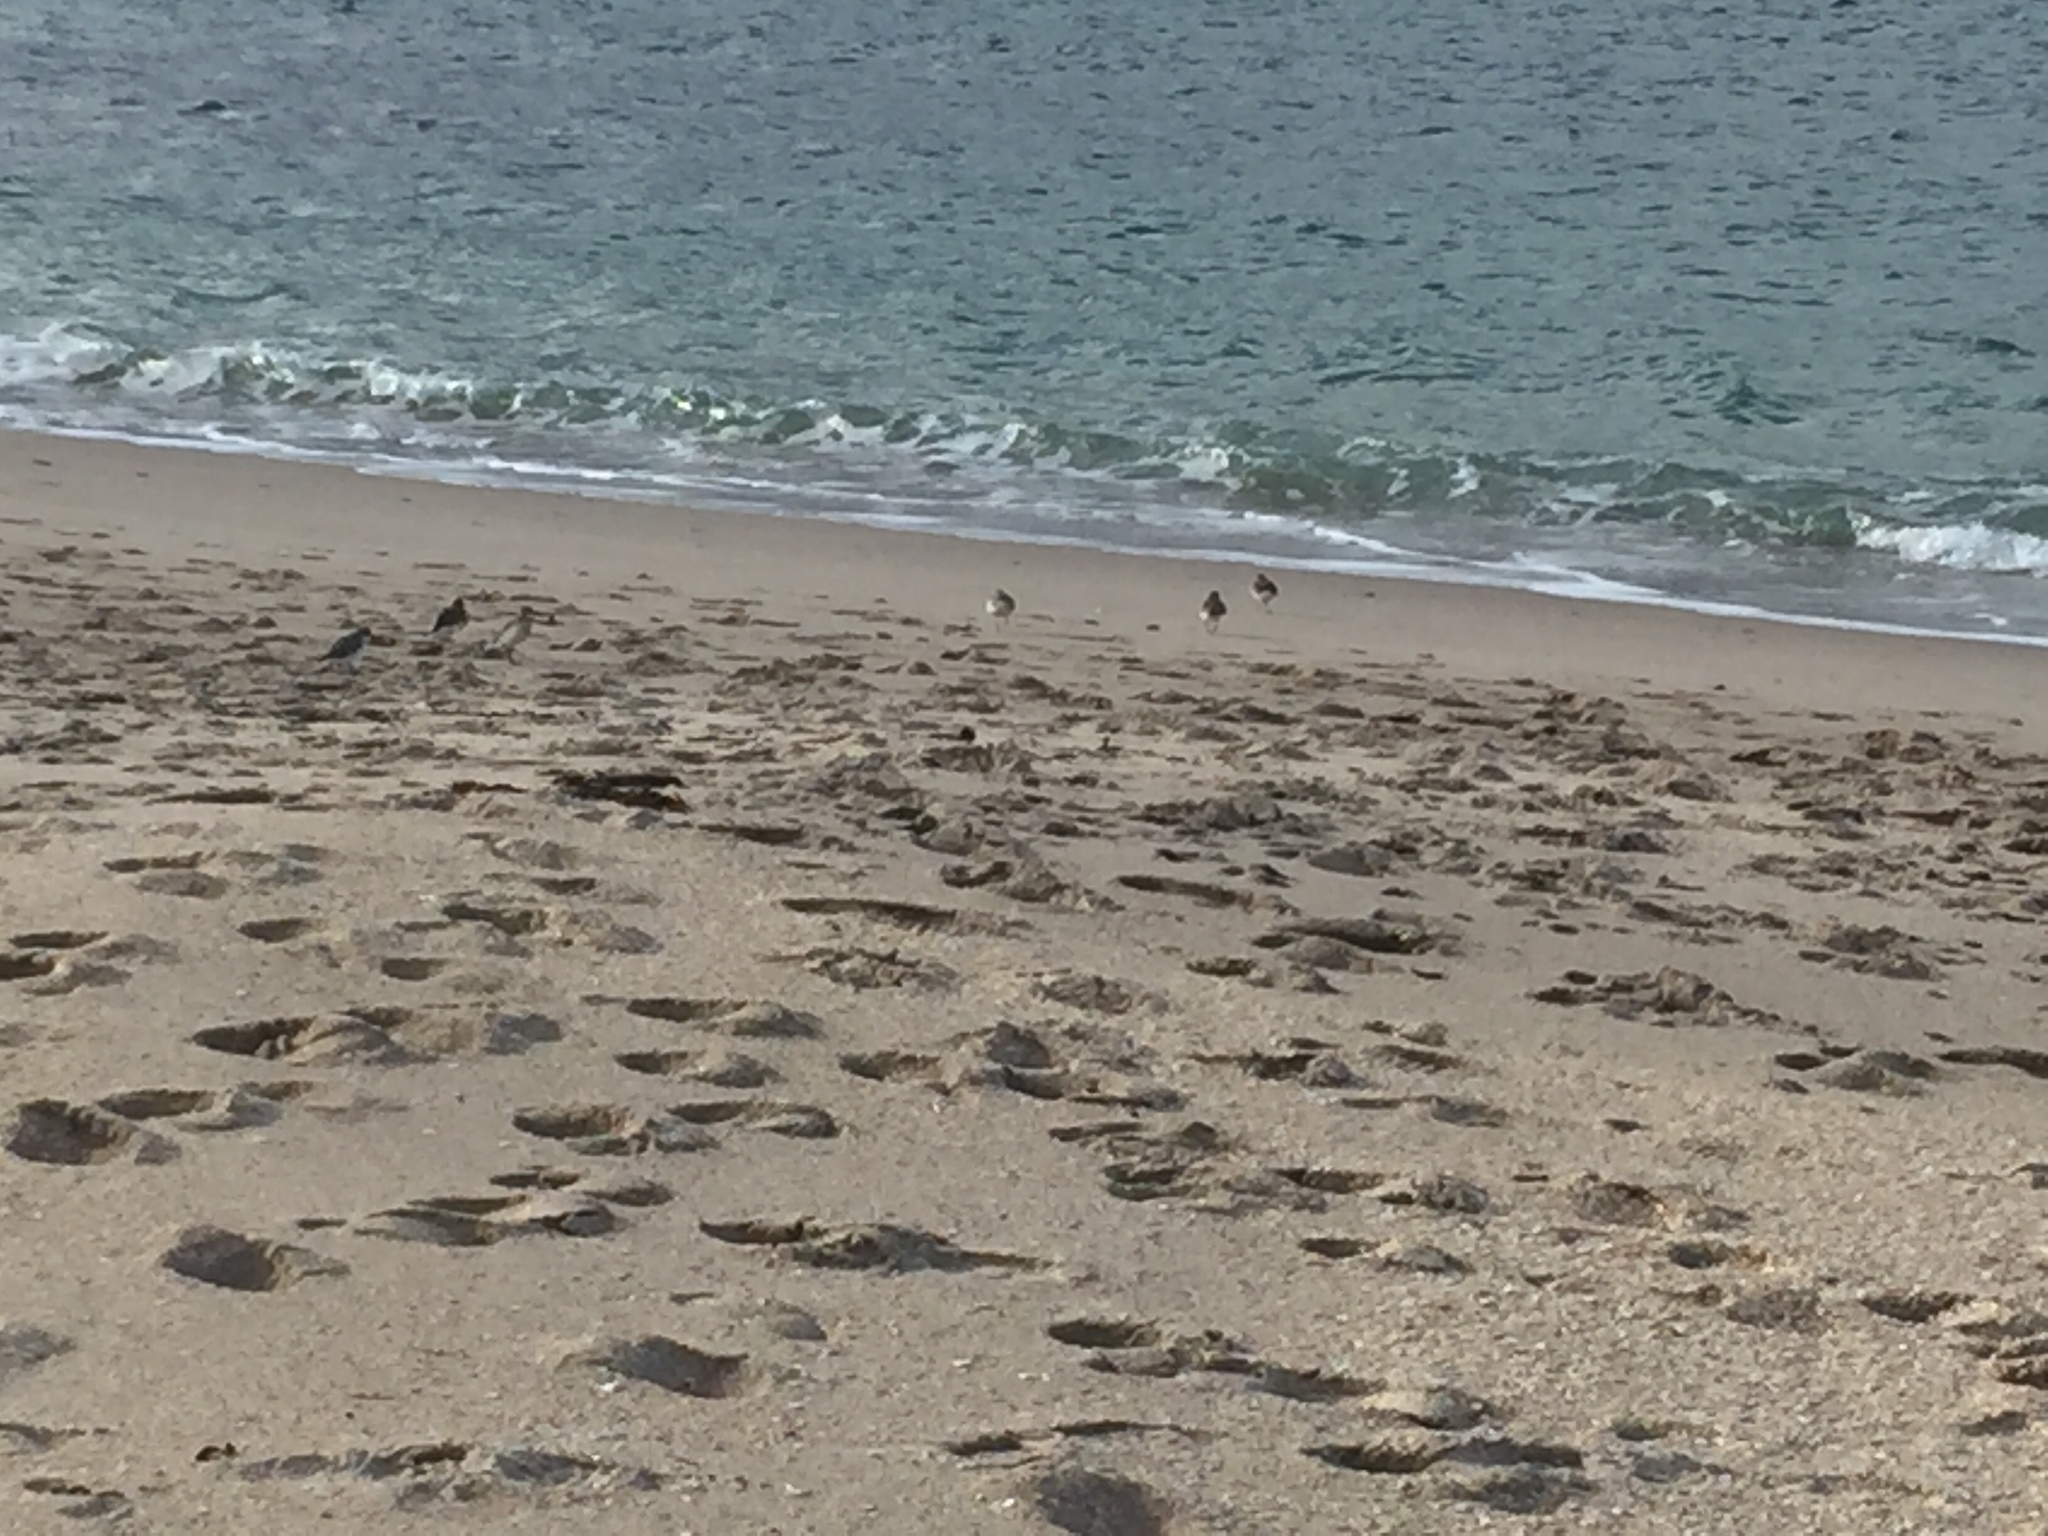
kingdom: Animalia
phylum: Chordata
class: Aves
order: Charadriiformes
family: Charadriidae
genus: Anarhynchus
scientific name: Anarhynchus
